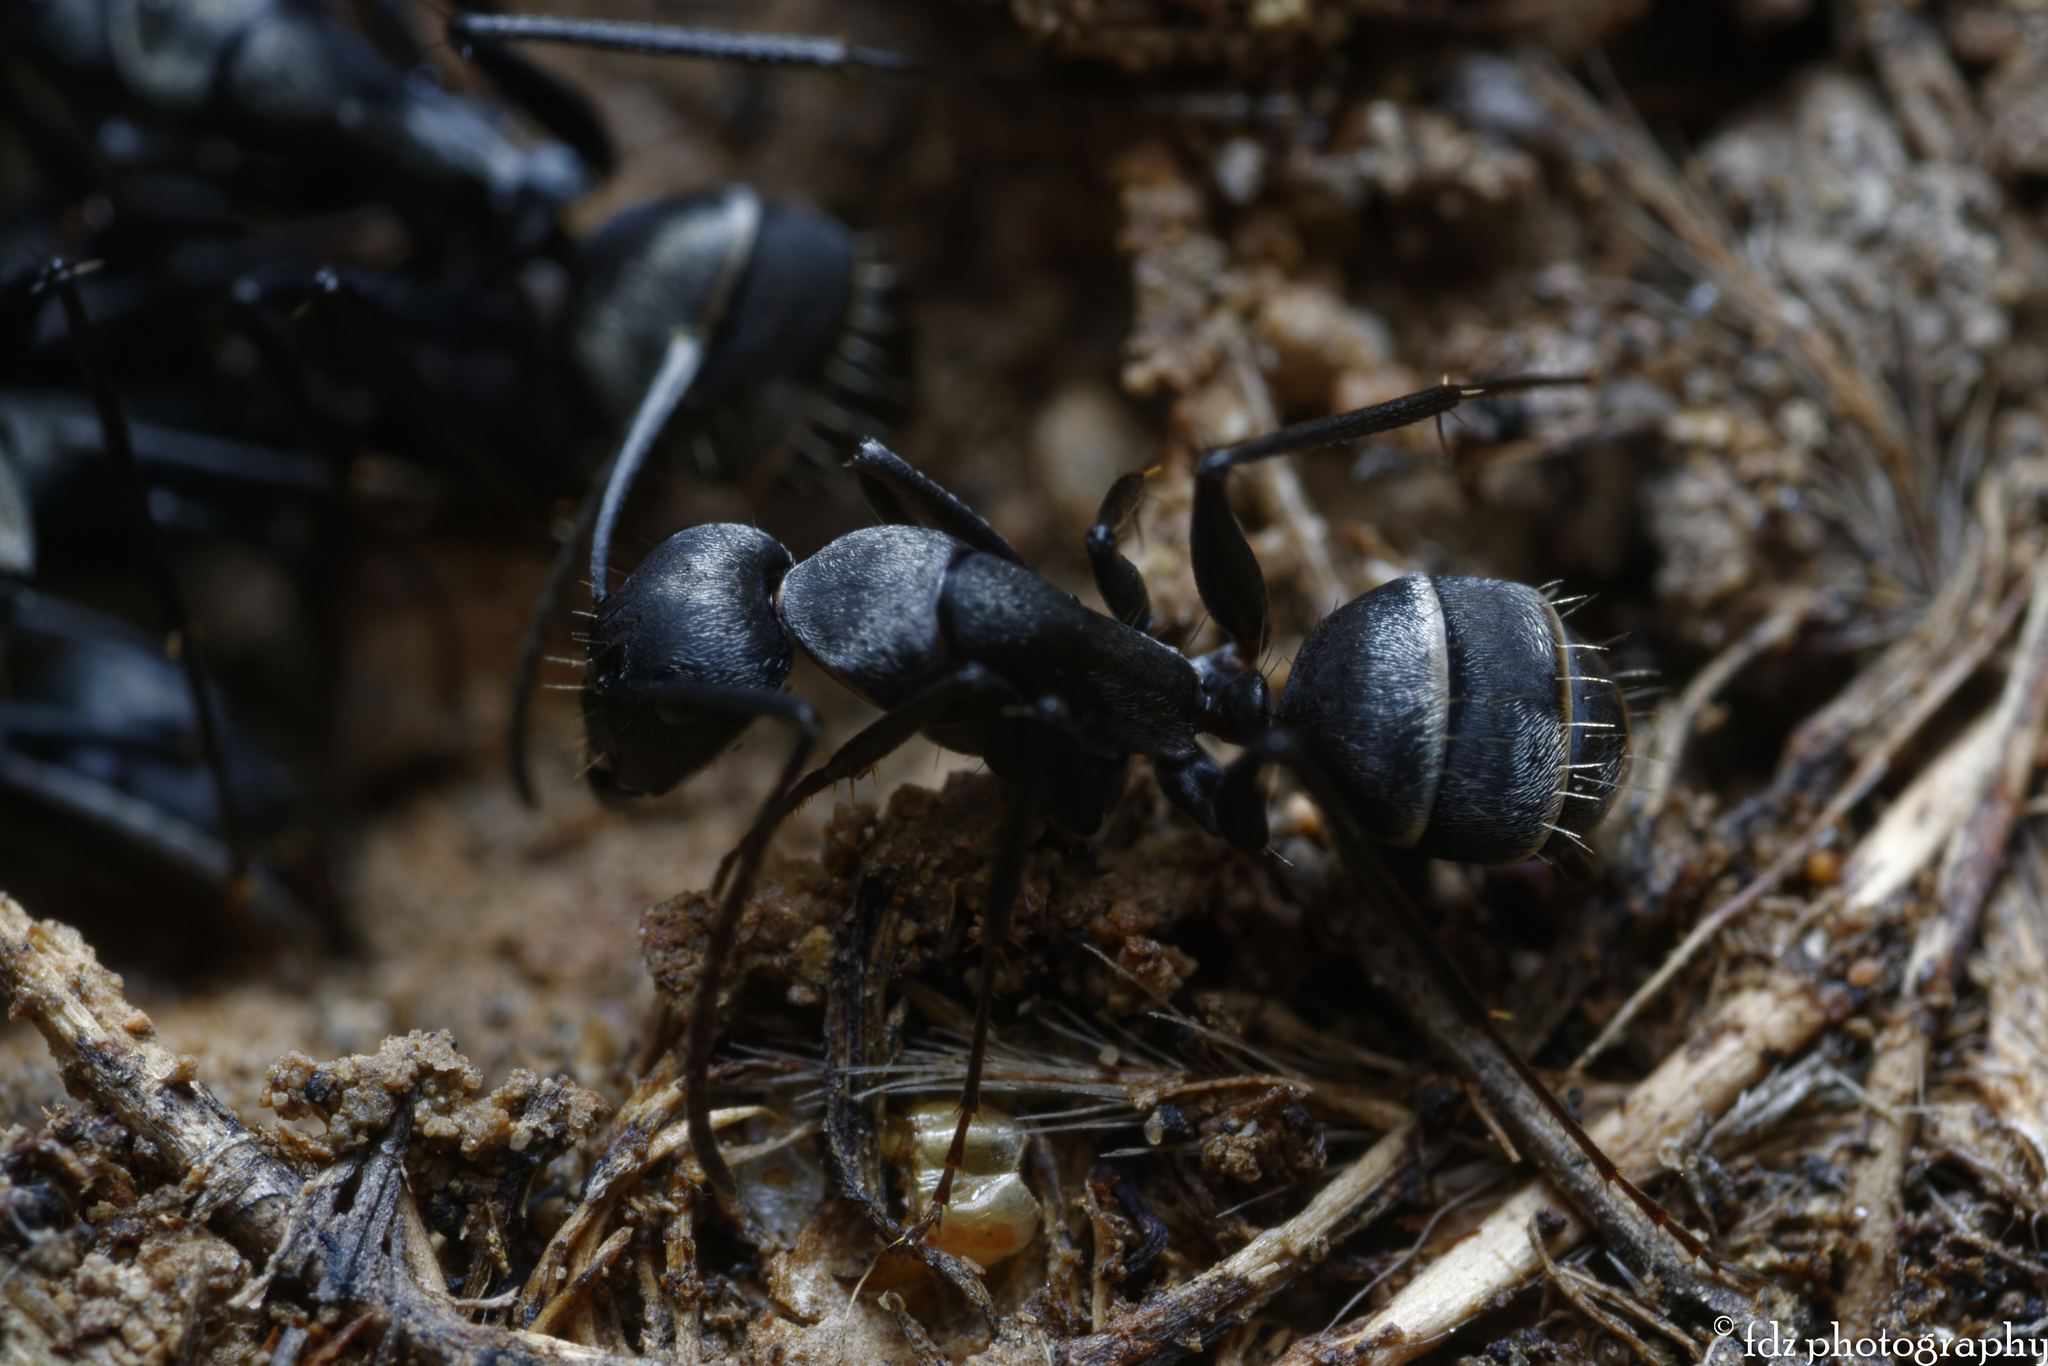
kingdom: Animalia
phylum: Arthropoda
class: Insecta
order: Hymenoptera
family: Formicidae
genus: Camponotus
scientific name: Camponotus micans
